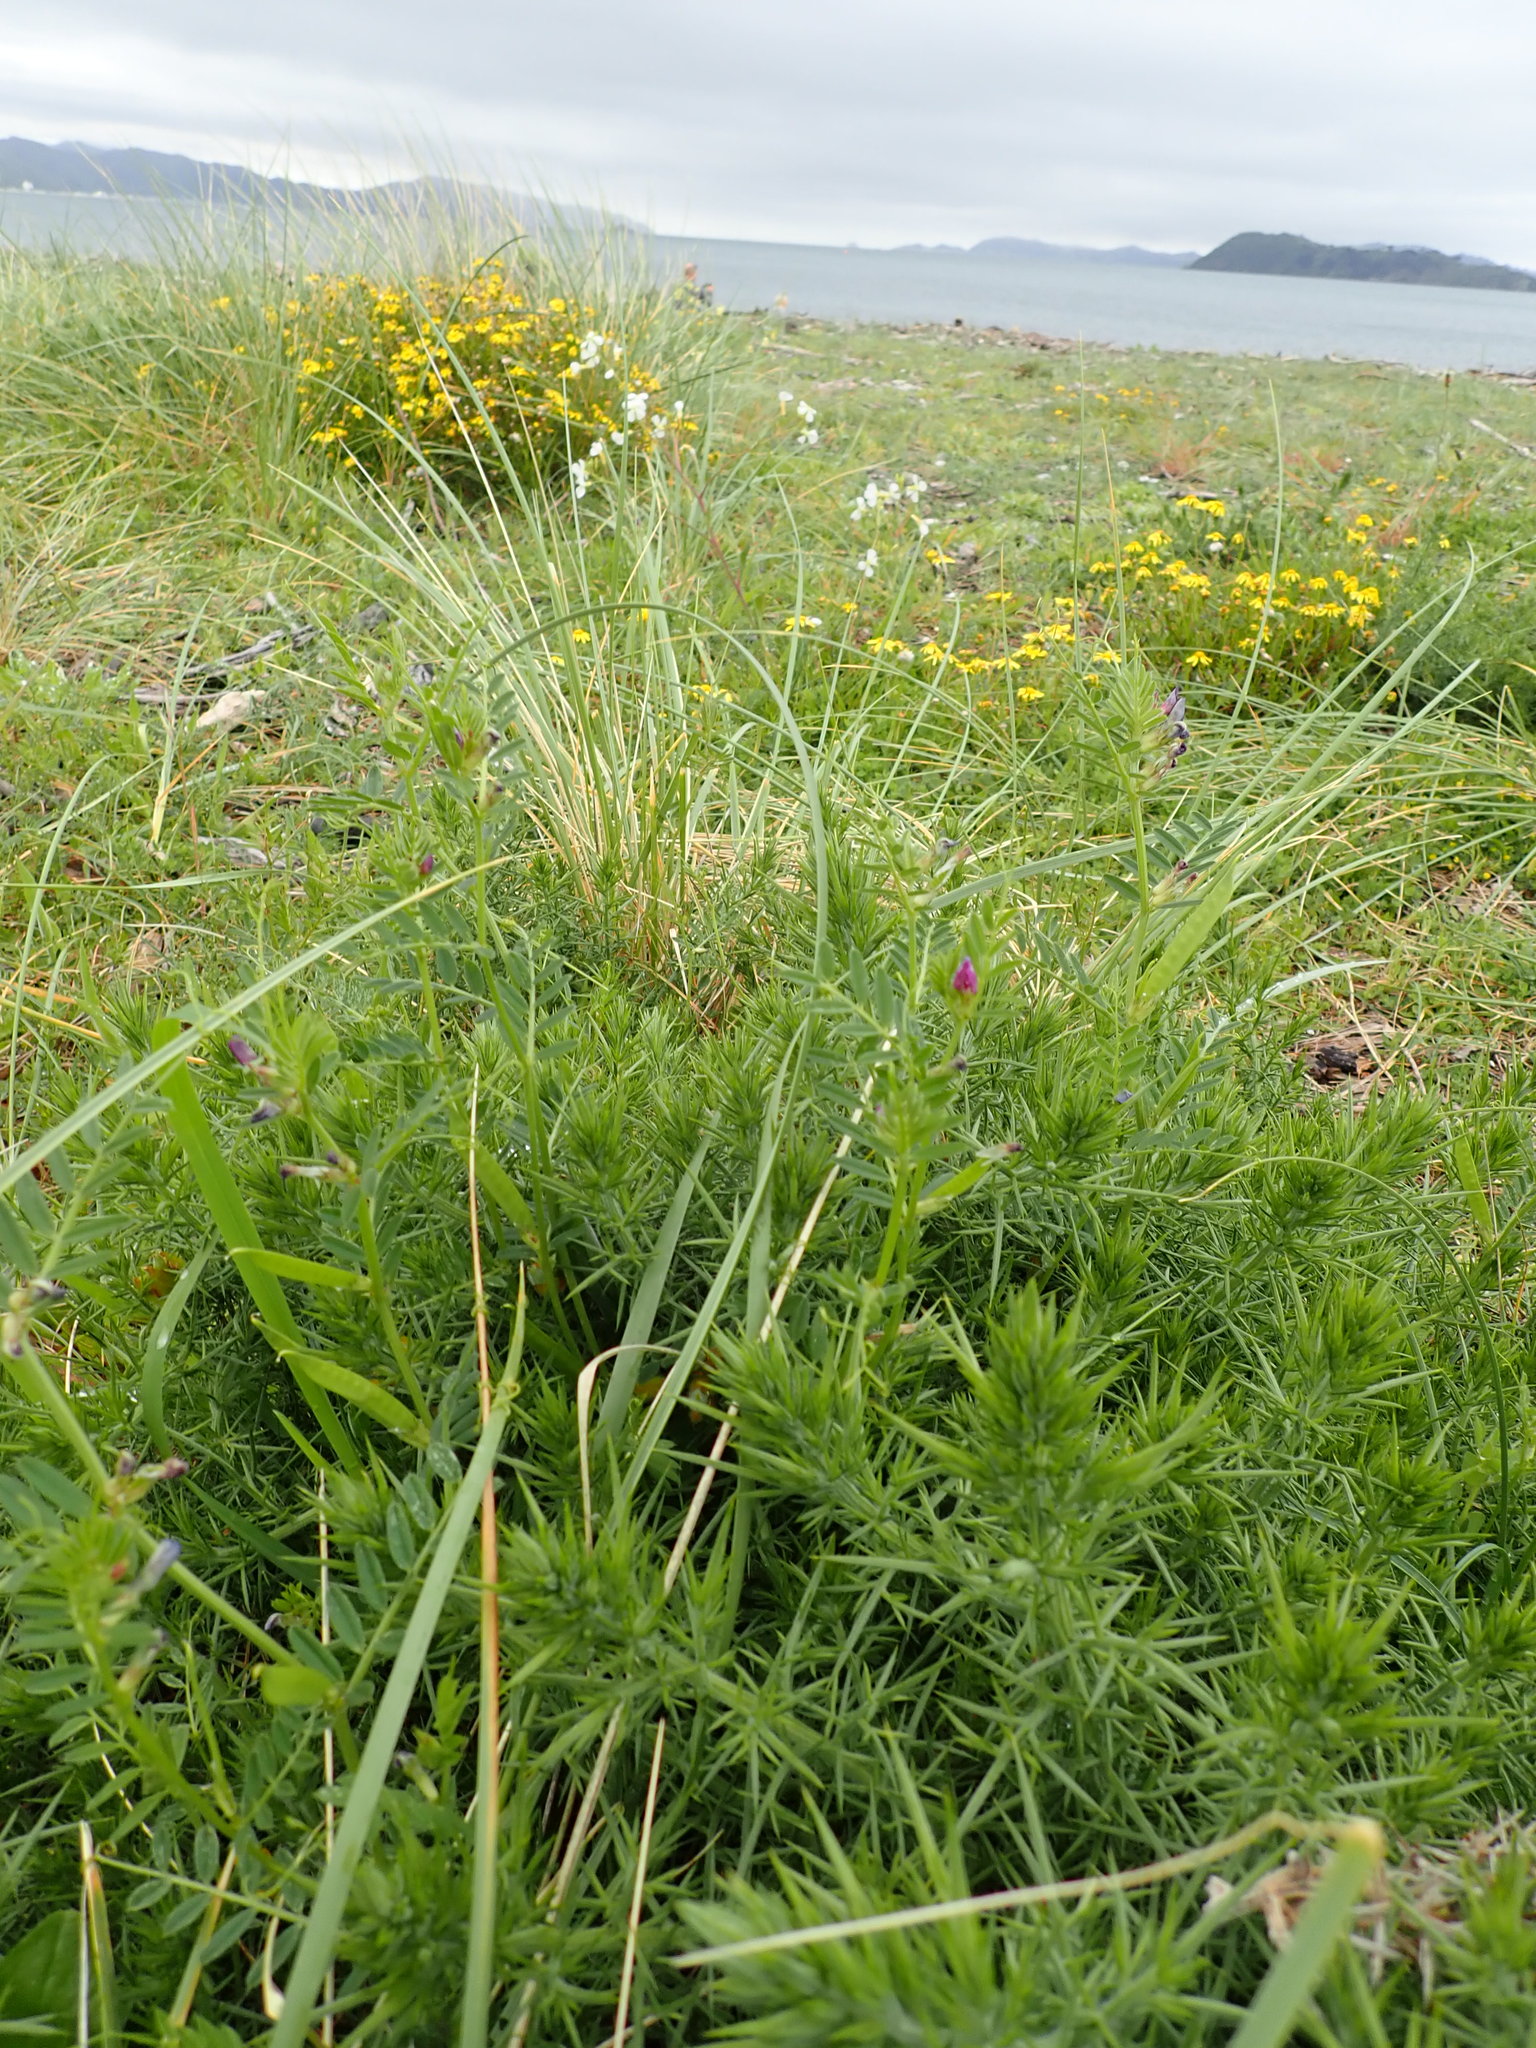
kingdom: Plantae
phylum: Tracheophyta
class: Magnoliopsida
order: Fabales
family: Fabaceae
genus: Ulex
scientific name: Ulex europaeus
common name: Common gorse
